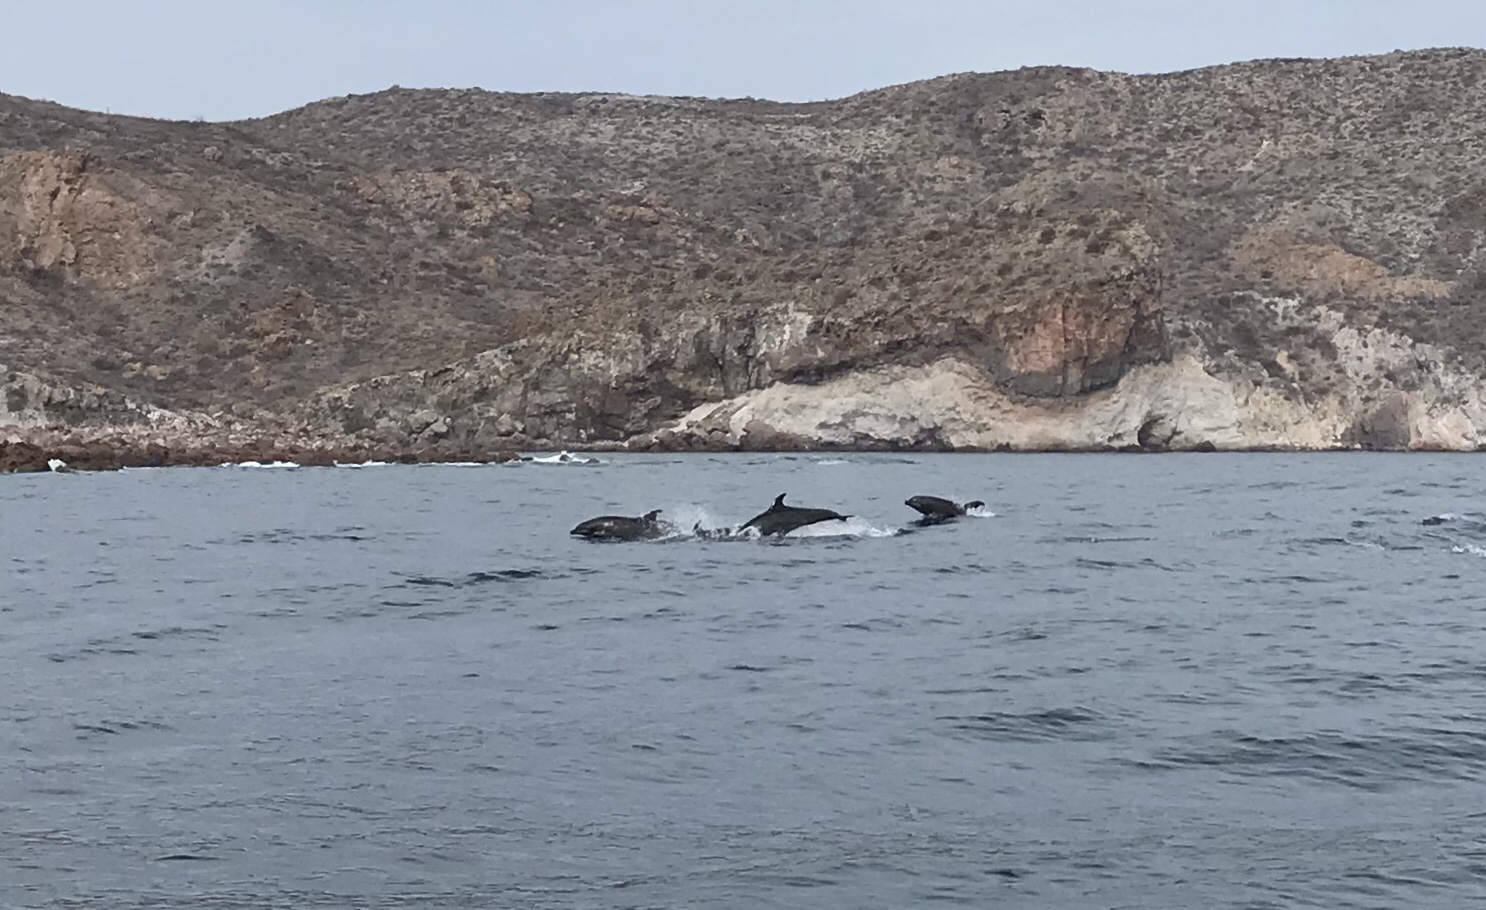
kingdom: Animalia
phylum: Chordata
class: Mammalia
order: Cetacea
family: Delphinidae
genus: Tursiops
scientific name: Tursiops truncatus
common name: Bottlenose dolphin
